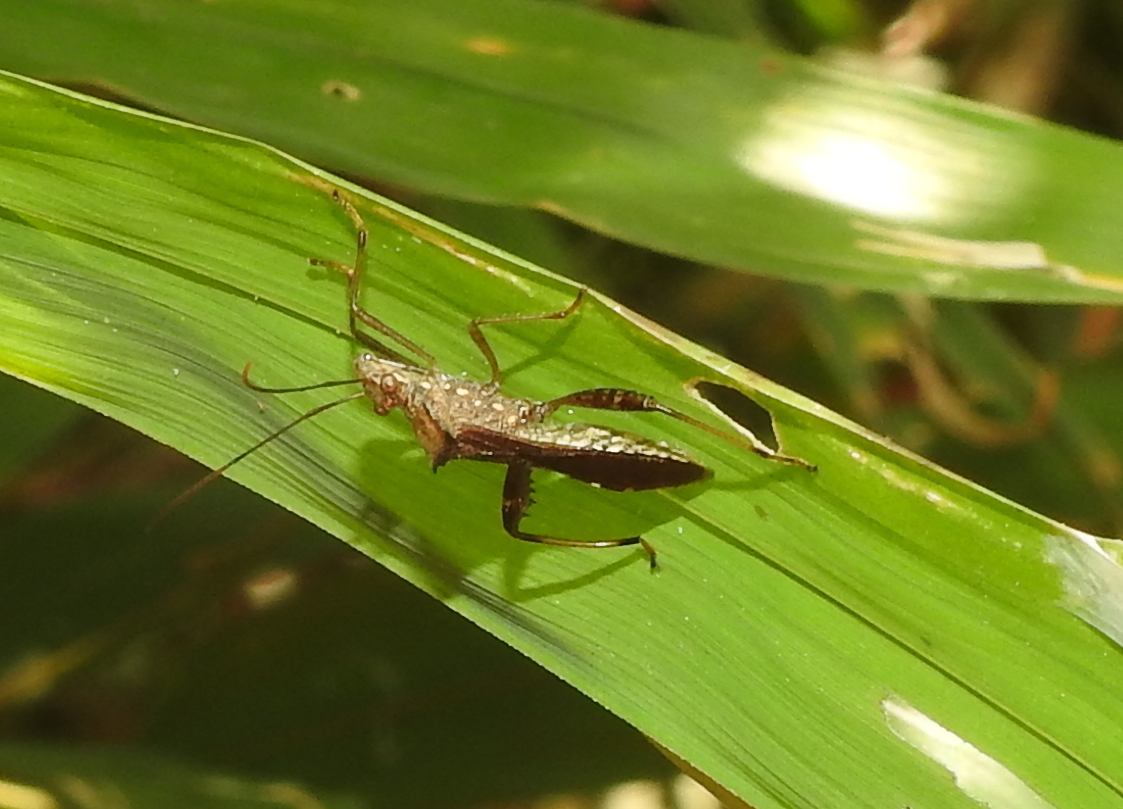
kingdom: Animalia
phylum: Arthropoda
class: Insecta
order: Hemiptera
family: Alydidae
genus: Riptortus
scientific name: Riptortus pedestris
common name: Bean bug
